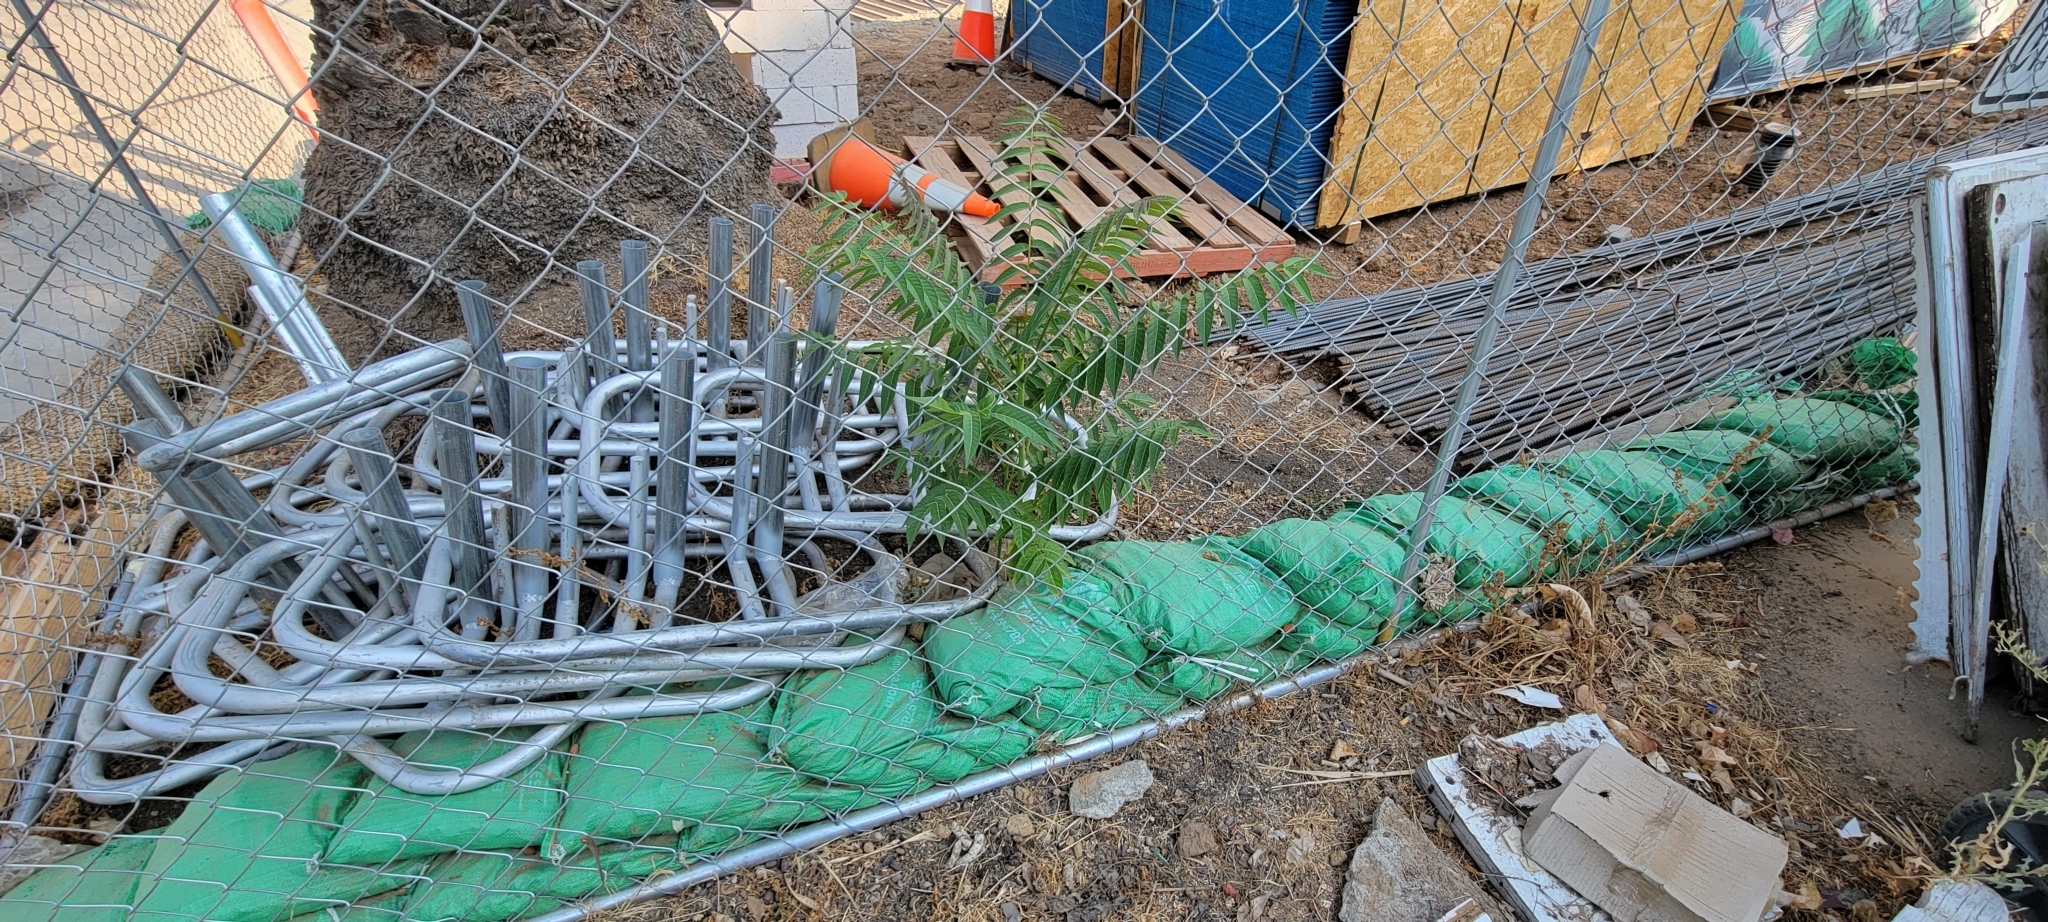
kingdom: Plantae
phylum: Tracheophyta
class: Magnoliopsida
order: Sapindales
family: Simaroubaceae
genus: Ailanthus
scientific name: Ailanthus altissima
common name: Tree-of-heaven
